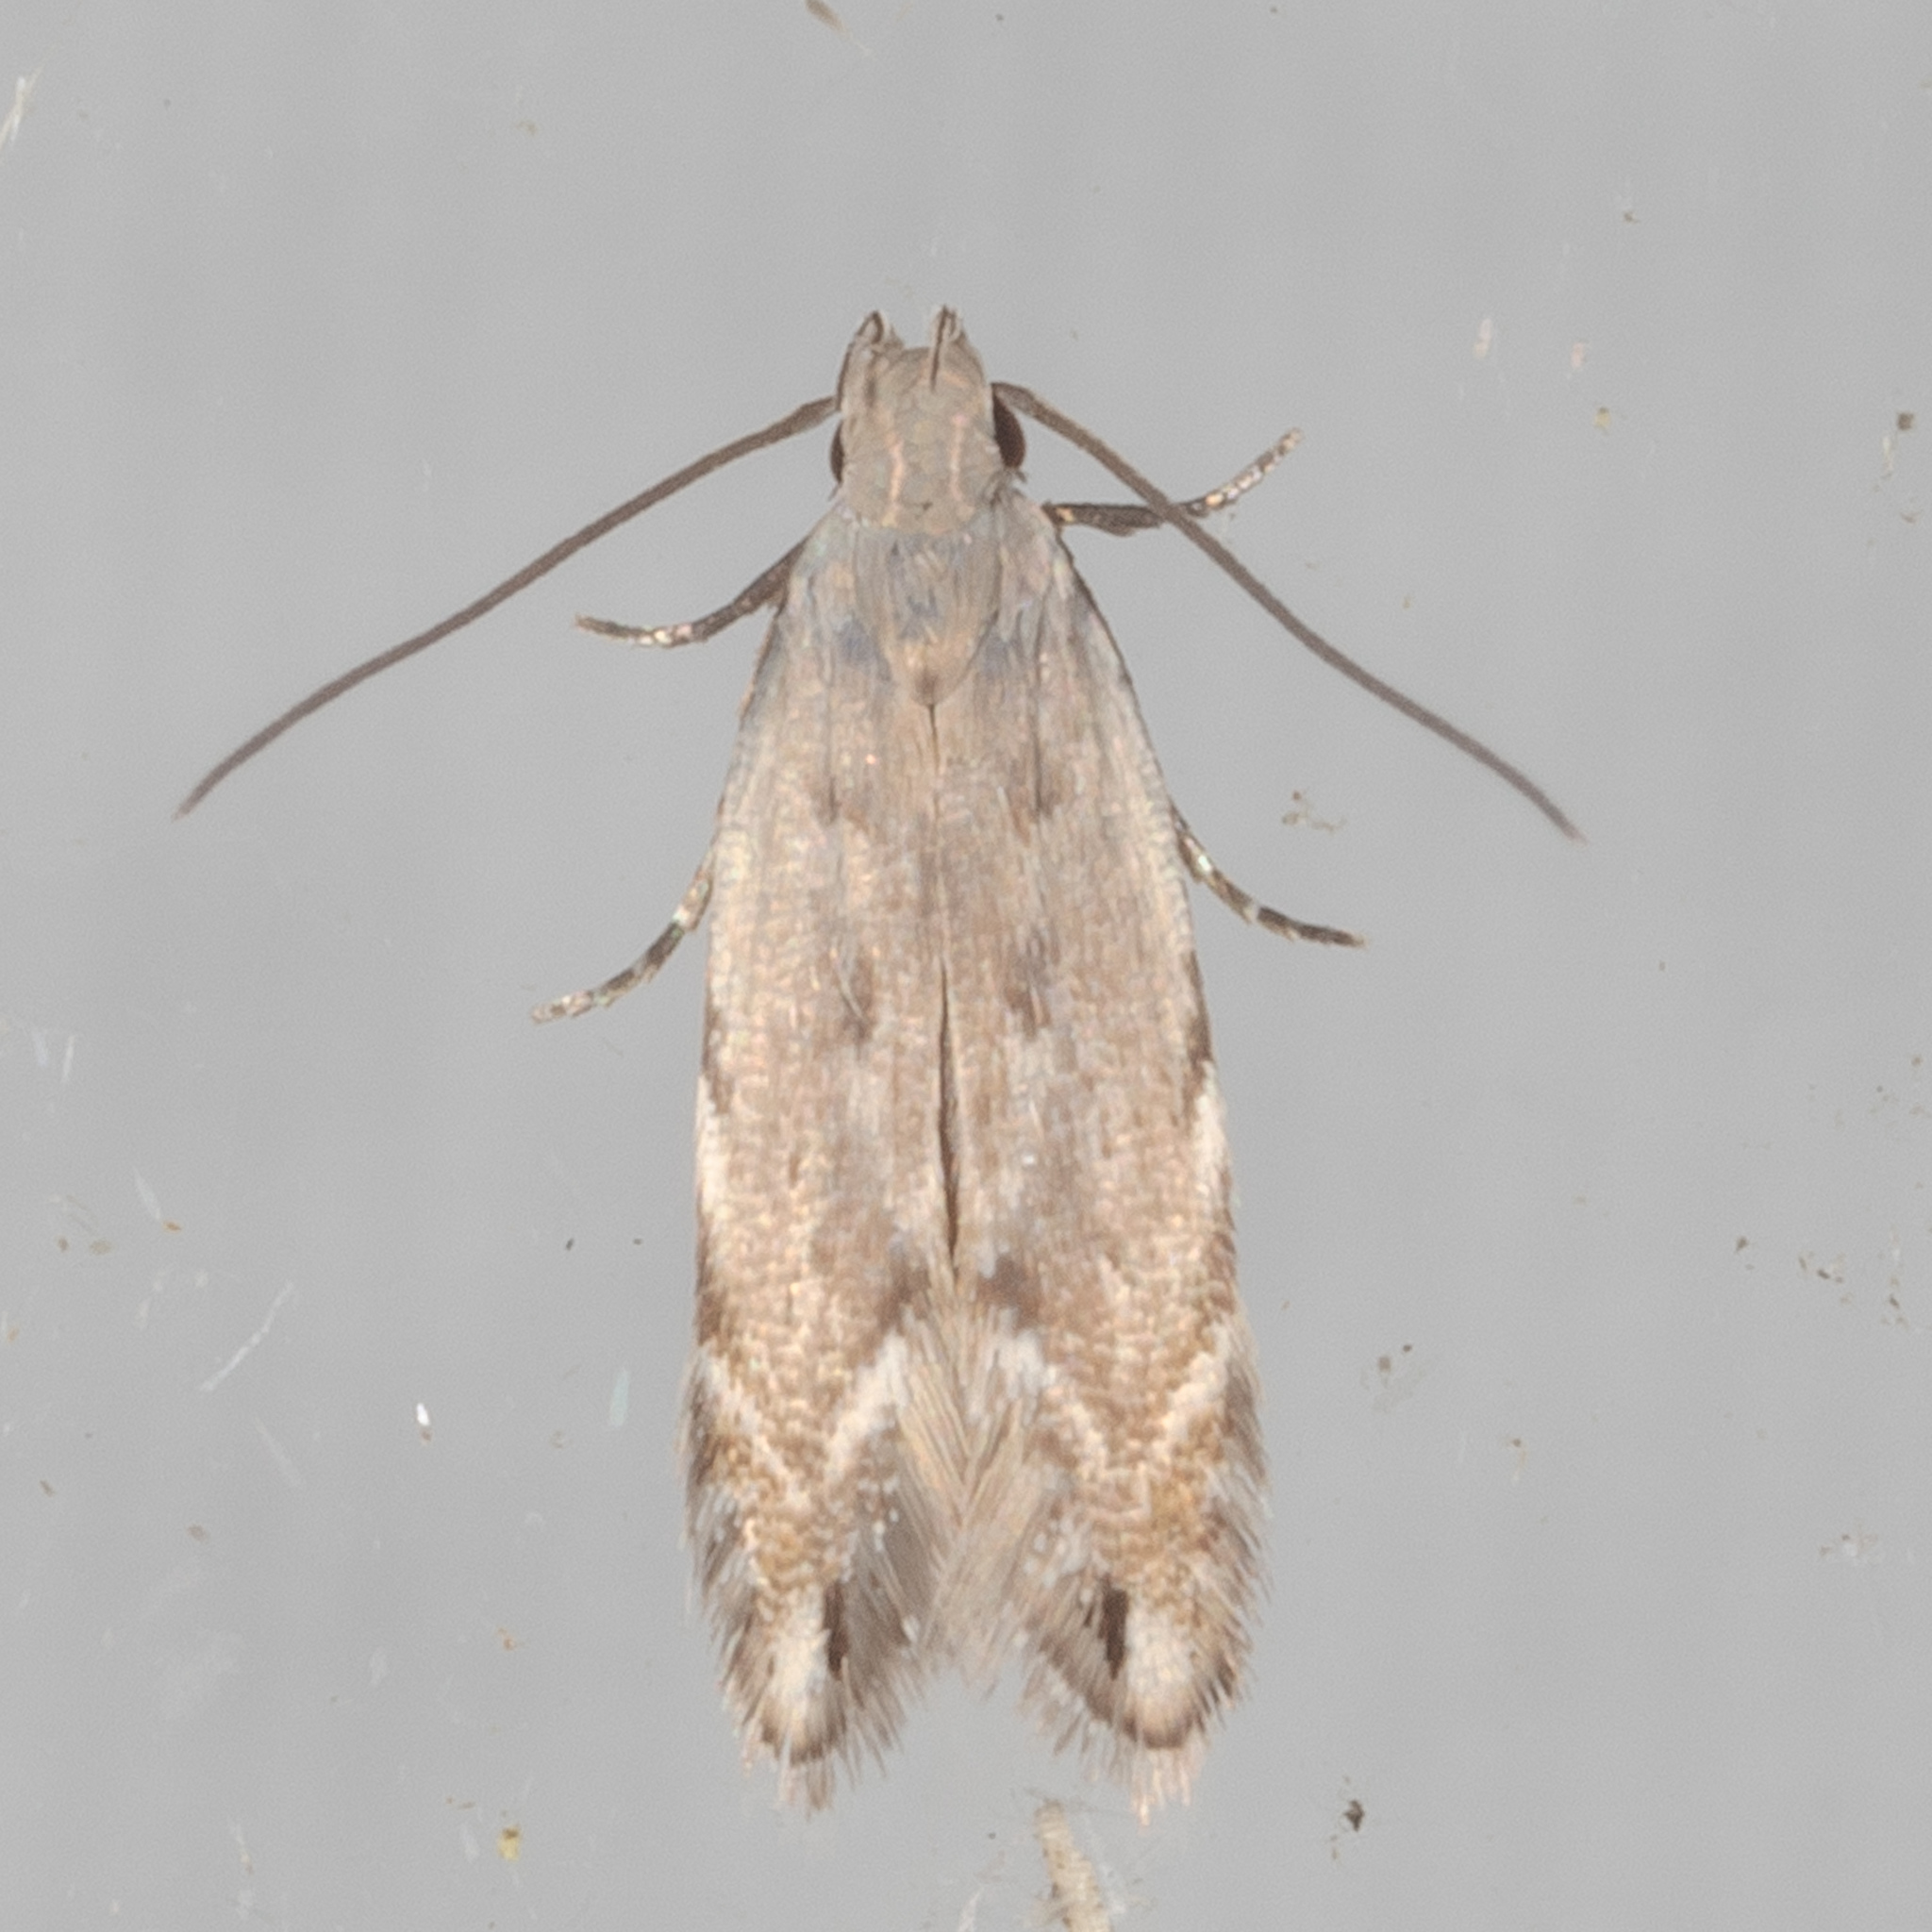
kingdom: Animalia
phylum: Arthropoda
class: Insecta
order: Lepidoptera
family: Gelechiidae
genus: Battaristis
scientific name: Battaristis concinnusella
